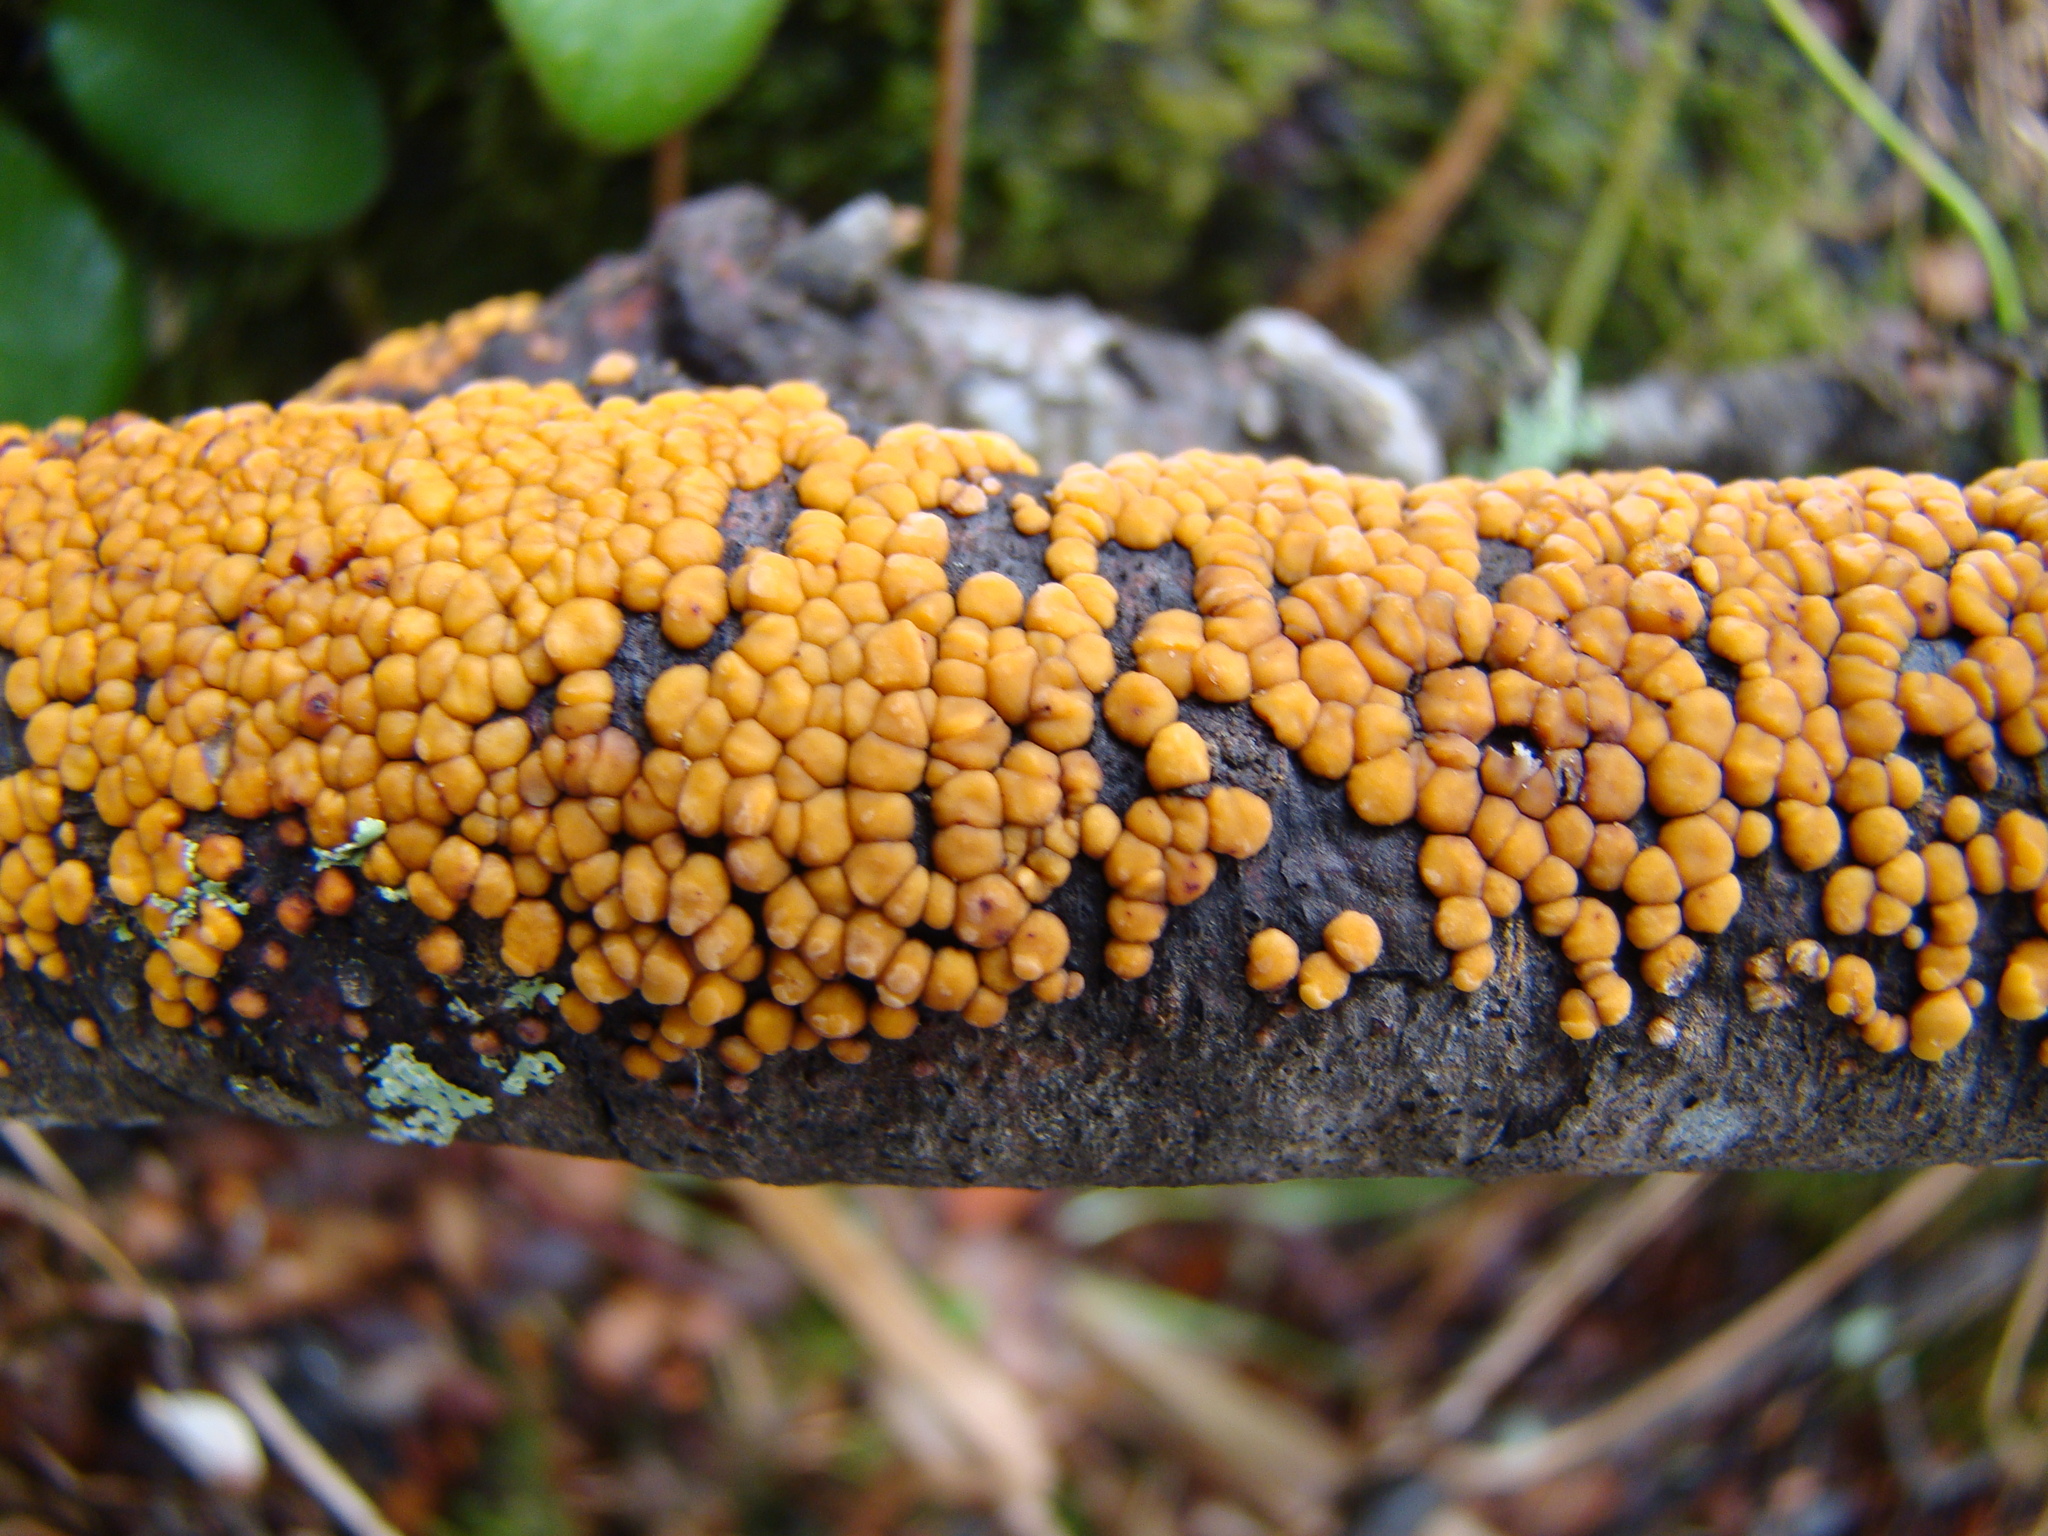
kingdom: Fungi
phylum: Basidiomycota
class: Agaricomycetes
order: Russulales
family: Stereaceae
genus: Aleurodiscus
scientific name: Aleurodiscus berggrenii
